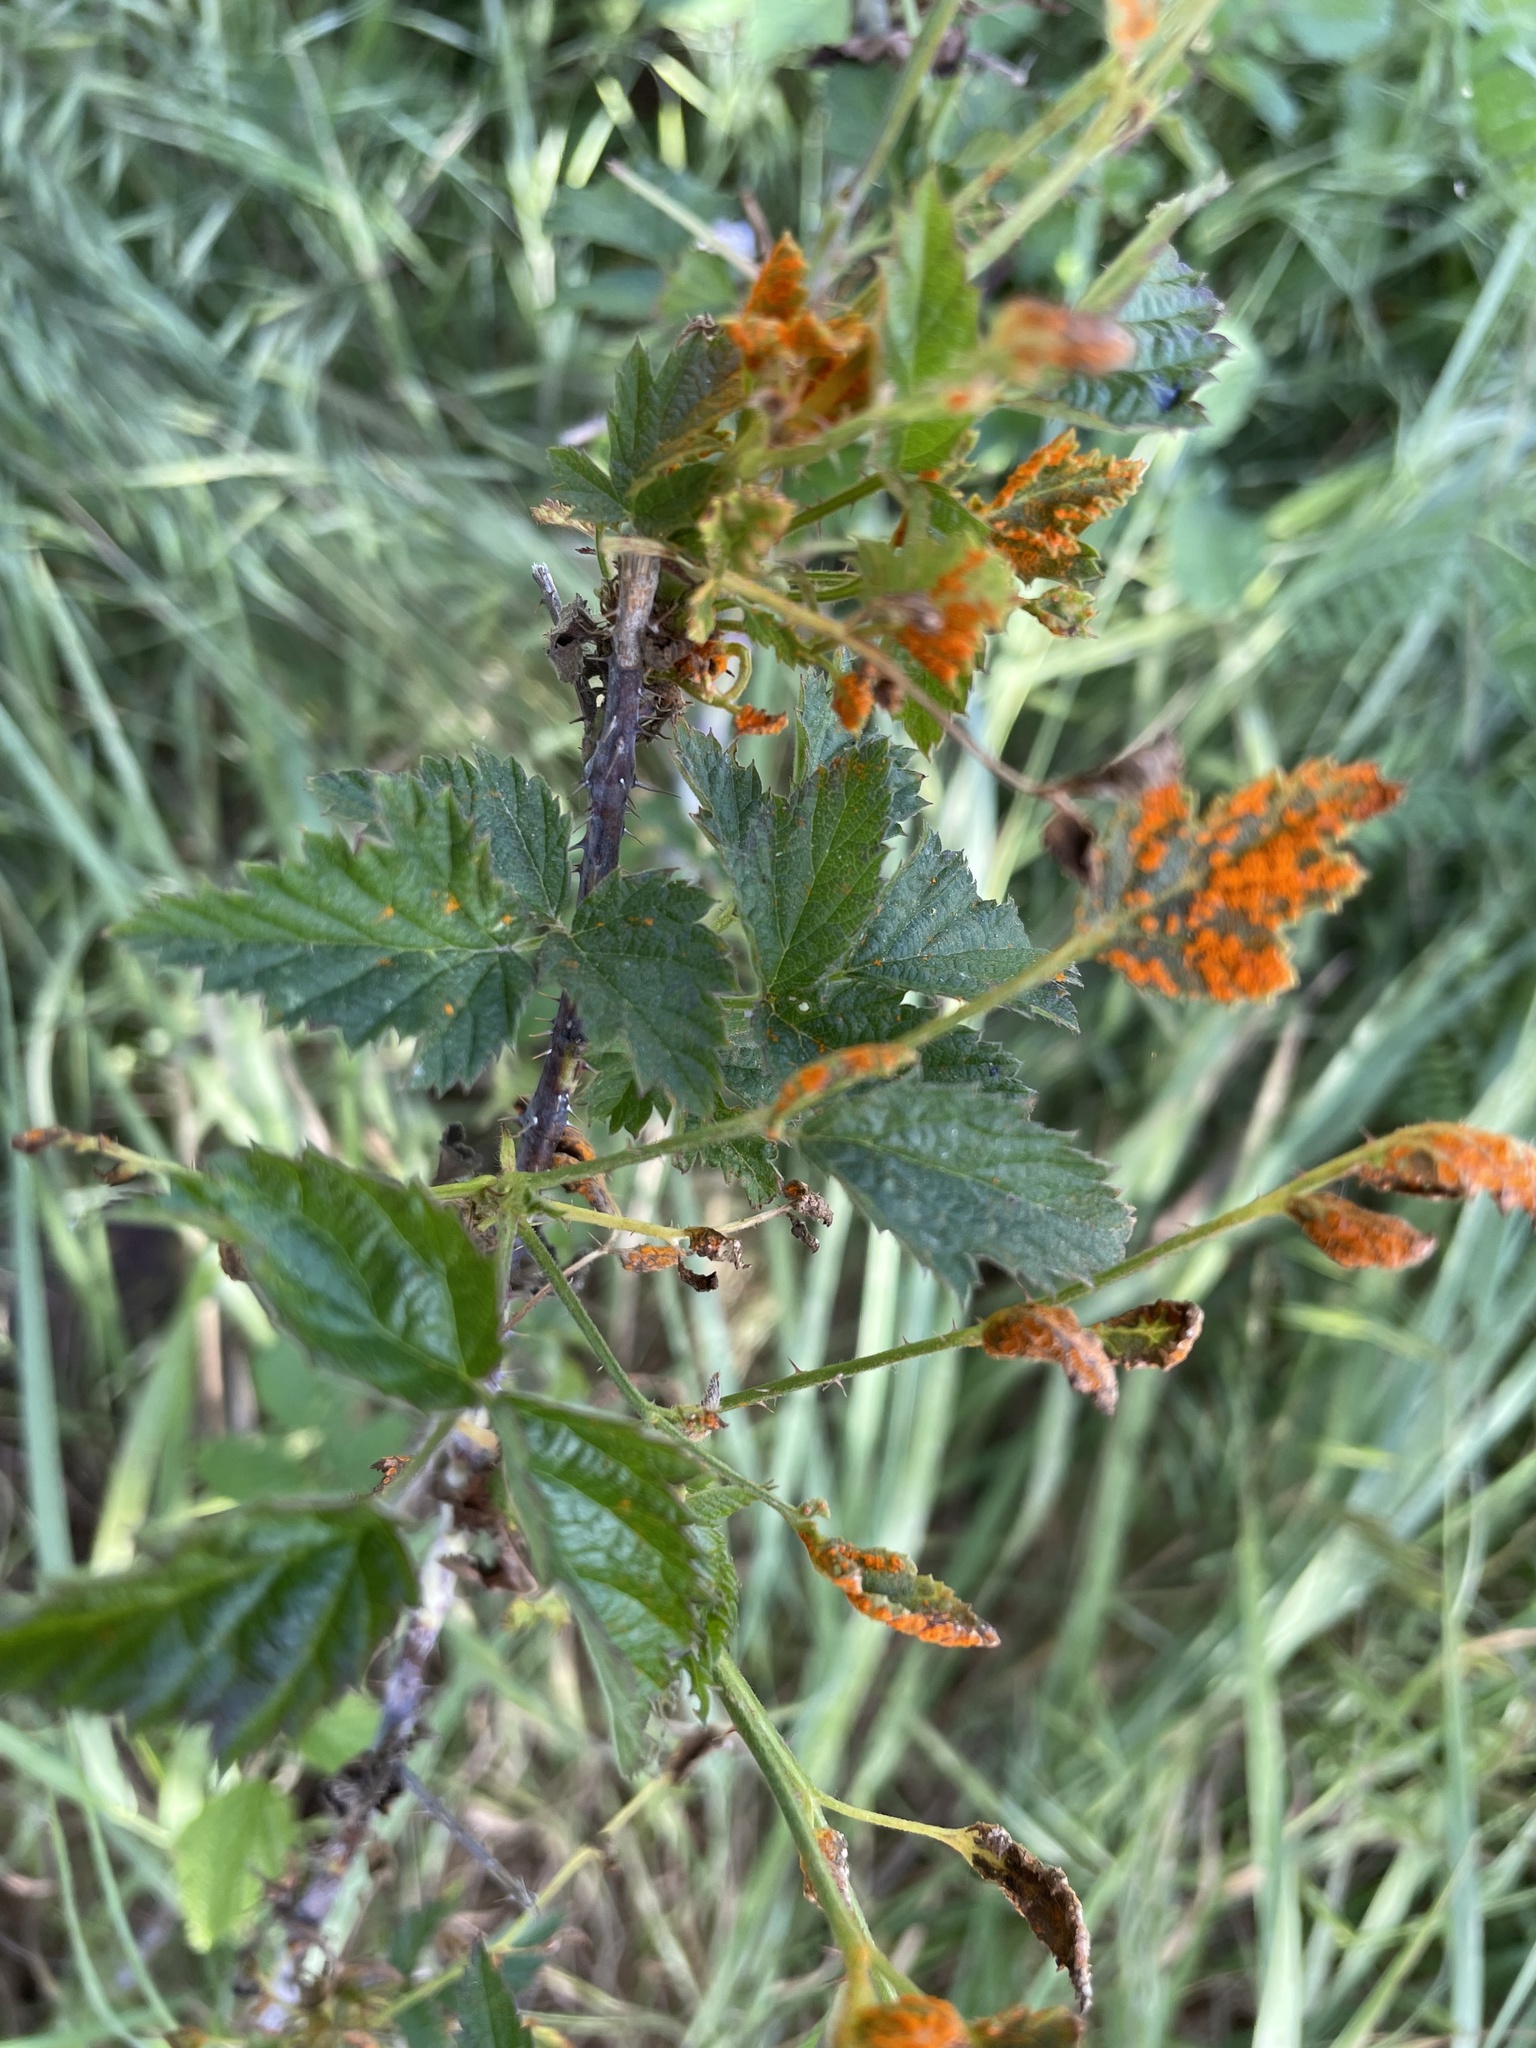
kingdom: Plantae
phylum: Tracheophyta
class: Magnoliopsida
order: Rosales
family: Rosaceae
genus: Rubus
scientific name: Rubus ursinus
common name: Pacific blackberry
